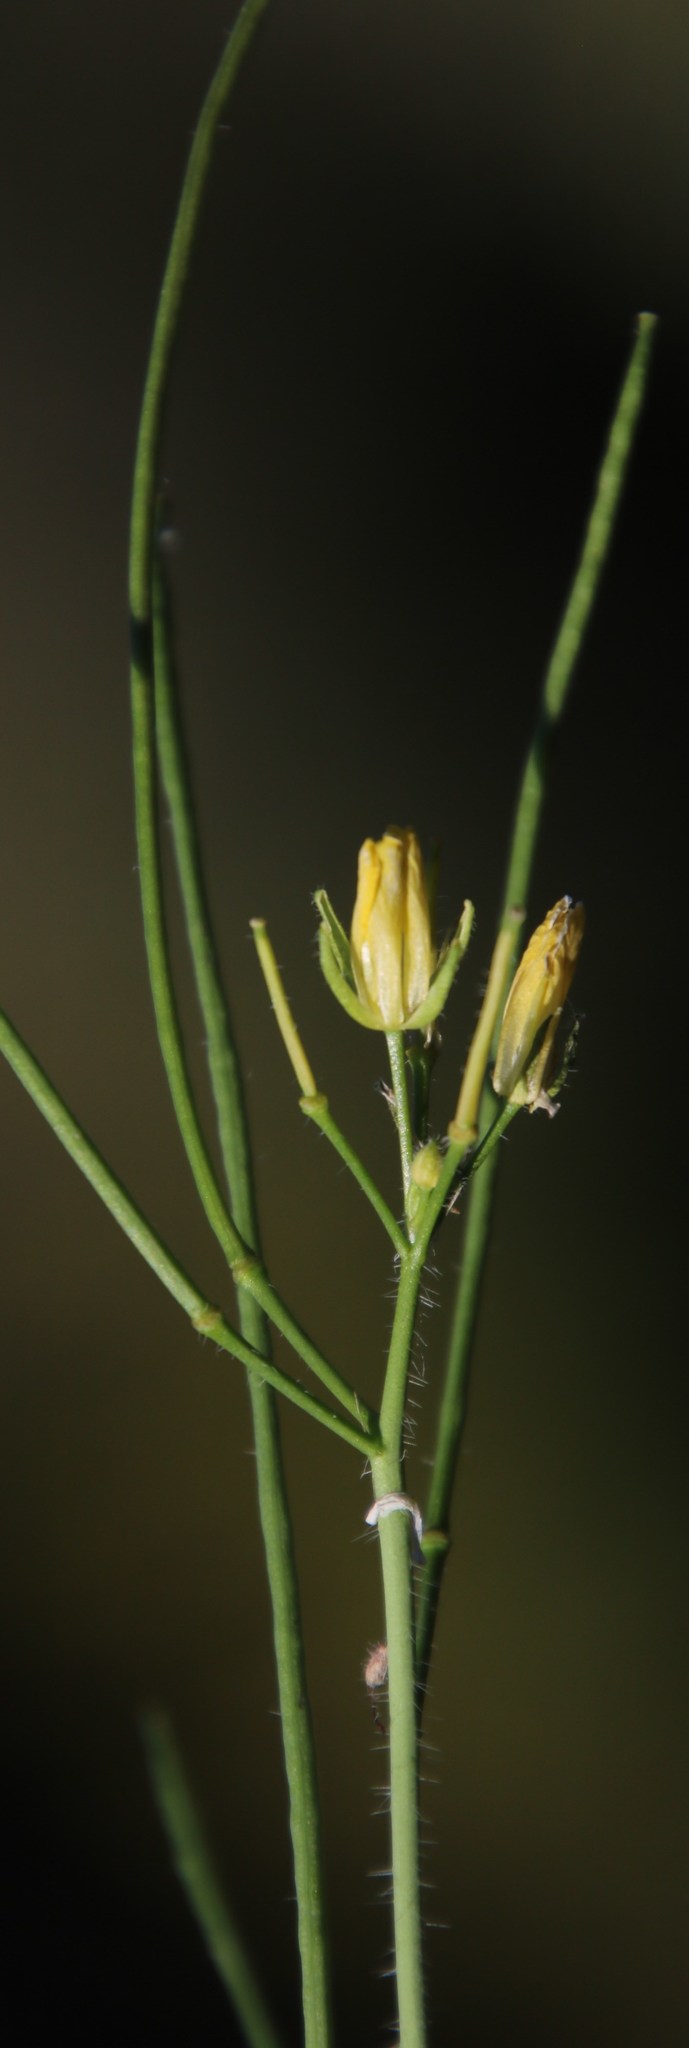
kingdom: Plantae
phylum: Tracheophyta
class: Magnoliopsida
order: Brassicales
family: Brassicaceae
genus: Sisymbrium
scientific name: Sisymbrium capense
